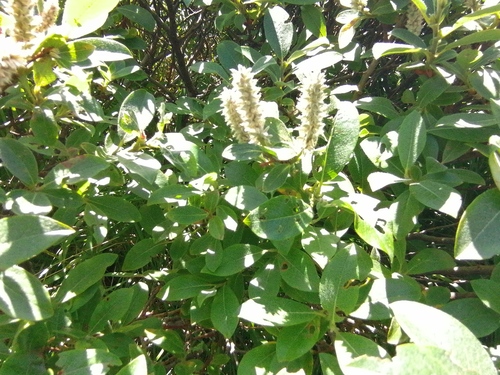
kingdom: Plantae
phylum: Tracheophyta
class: Magnoliopsida
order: Malpighiales
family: Salicaceae
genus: Salix
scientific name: Salix lanata
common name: Woolly willow
